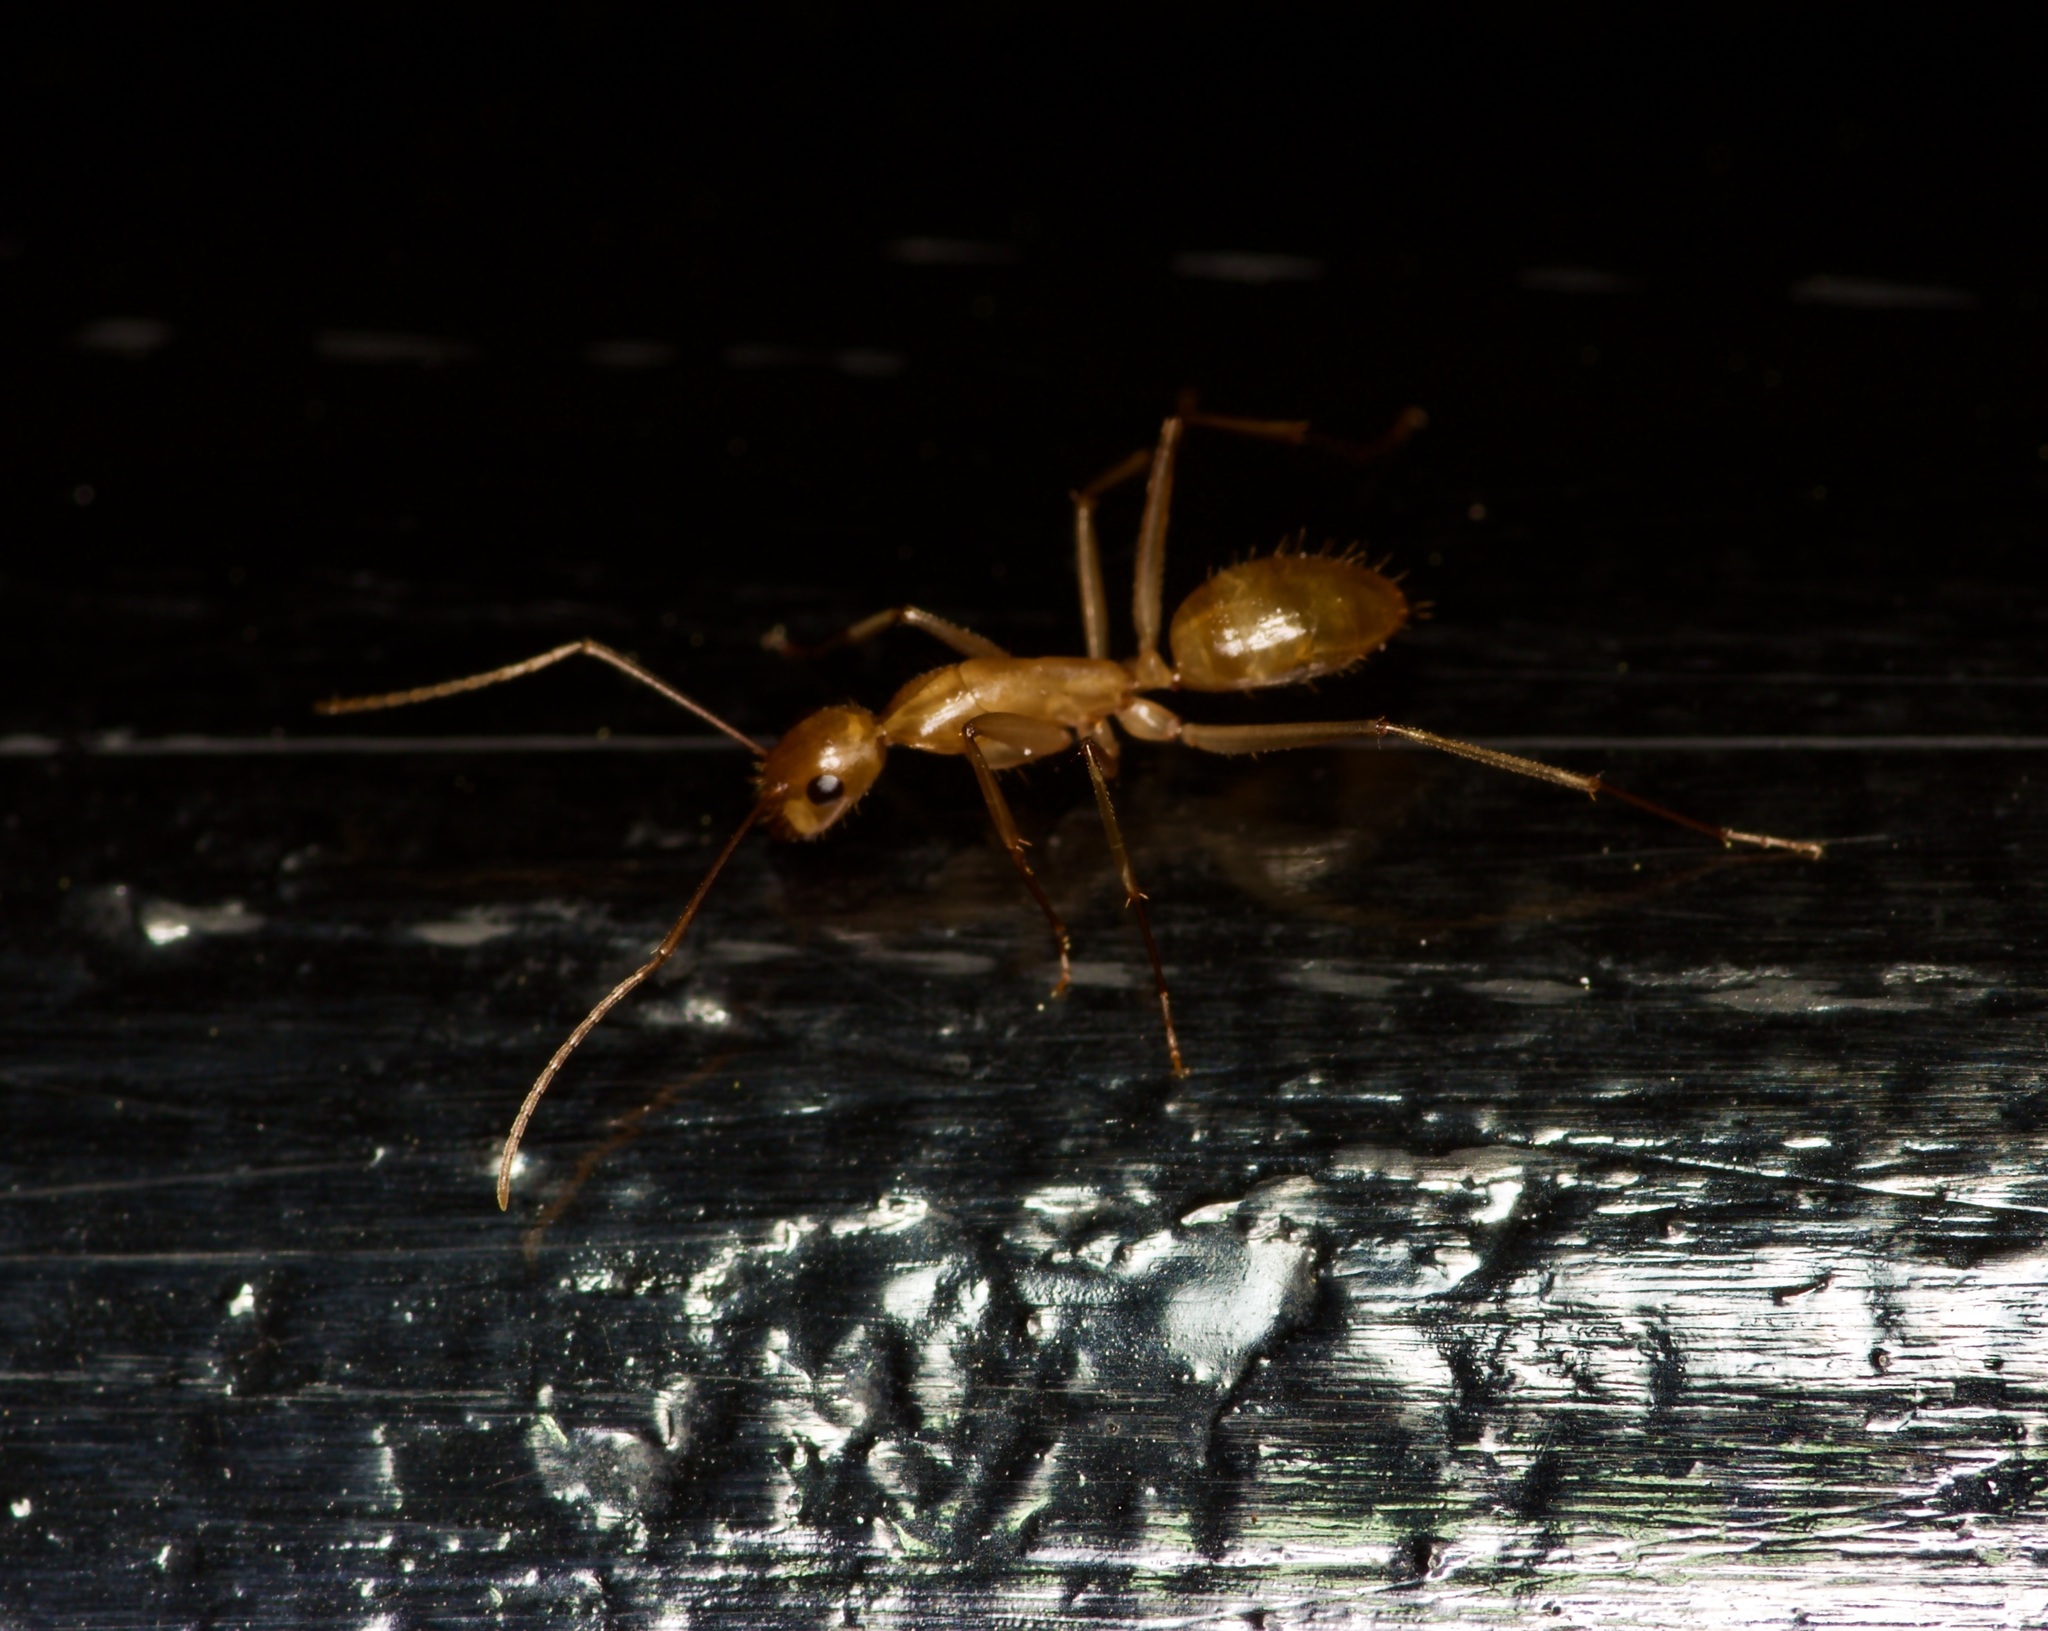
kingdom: Animalia
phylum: Arthropoda
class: Insecta
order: Hymenoptera
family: Formicidae
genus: Camponotus
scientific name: Camponotus festinatus
